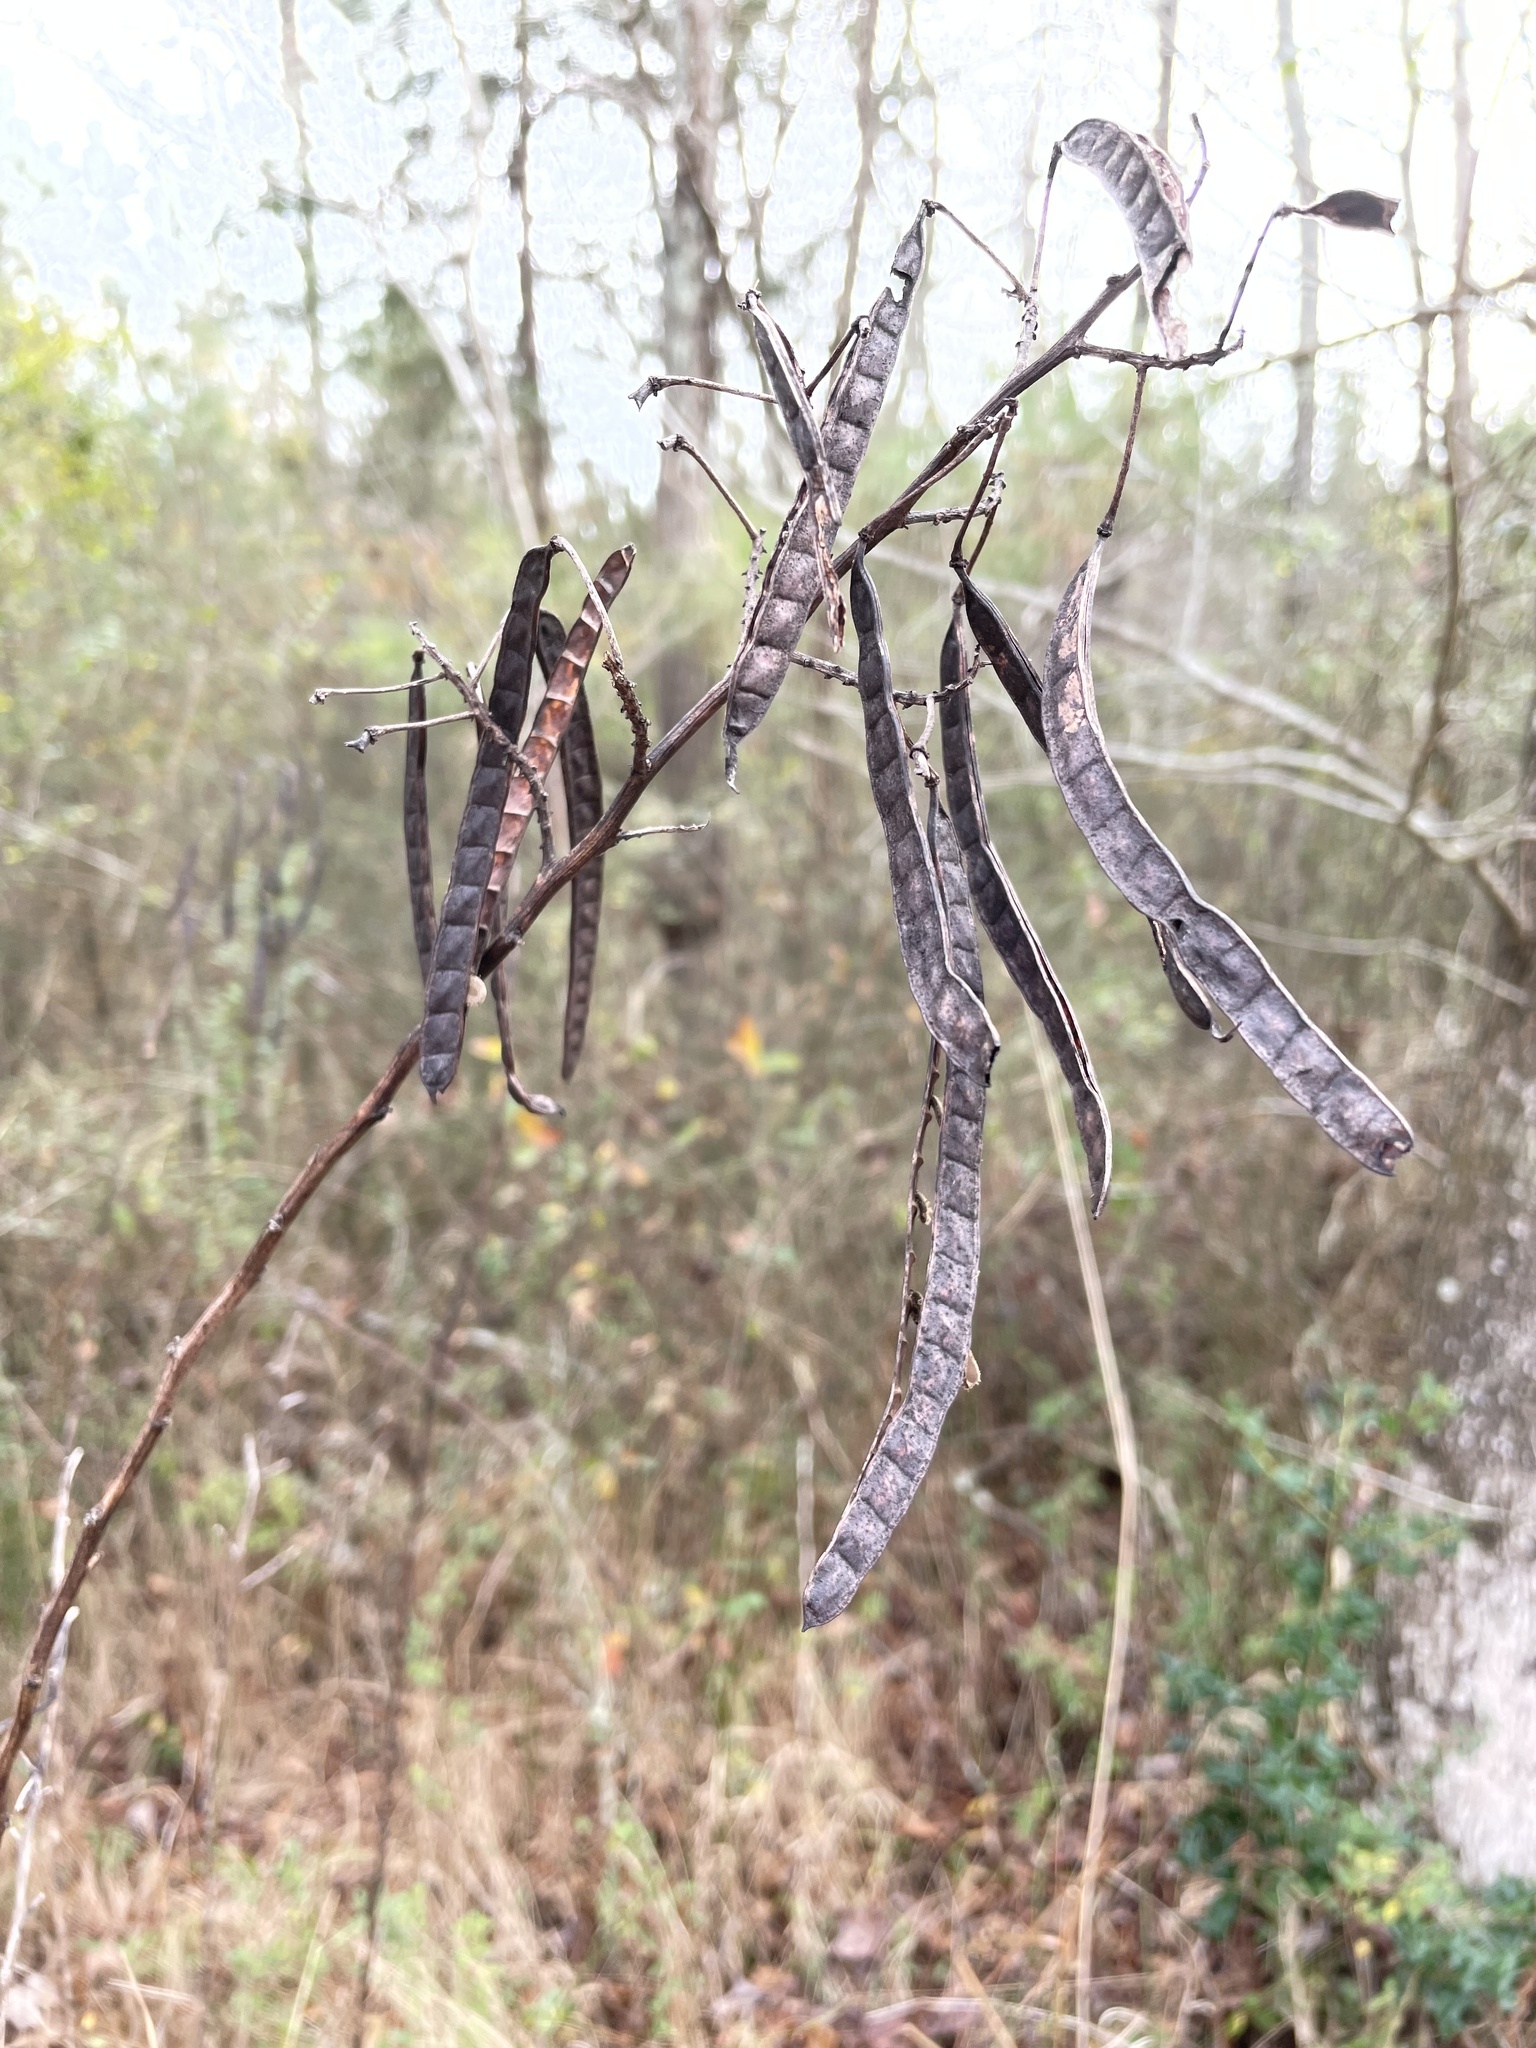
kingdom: Plantae
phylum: Tracheophyta
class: Magnoliopsida
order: Fabales
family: Fabaceae
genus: Senna
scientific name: Senna hebecarpa
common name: Wild senna
